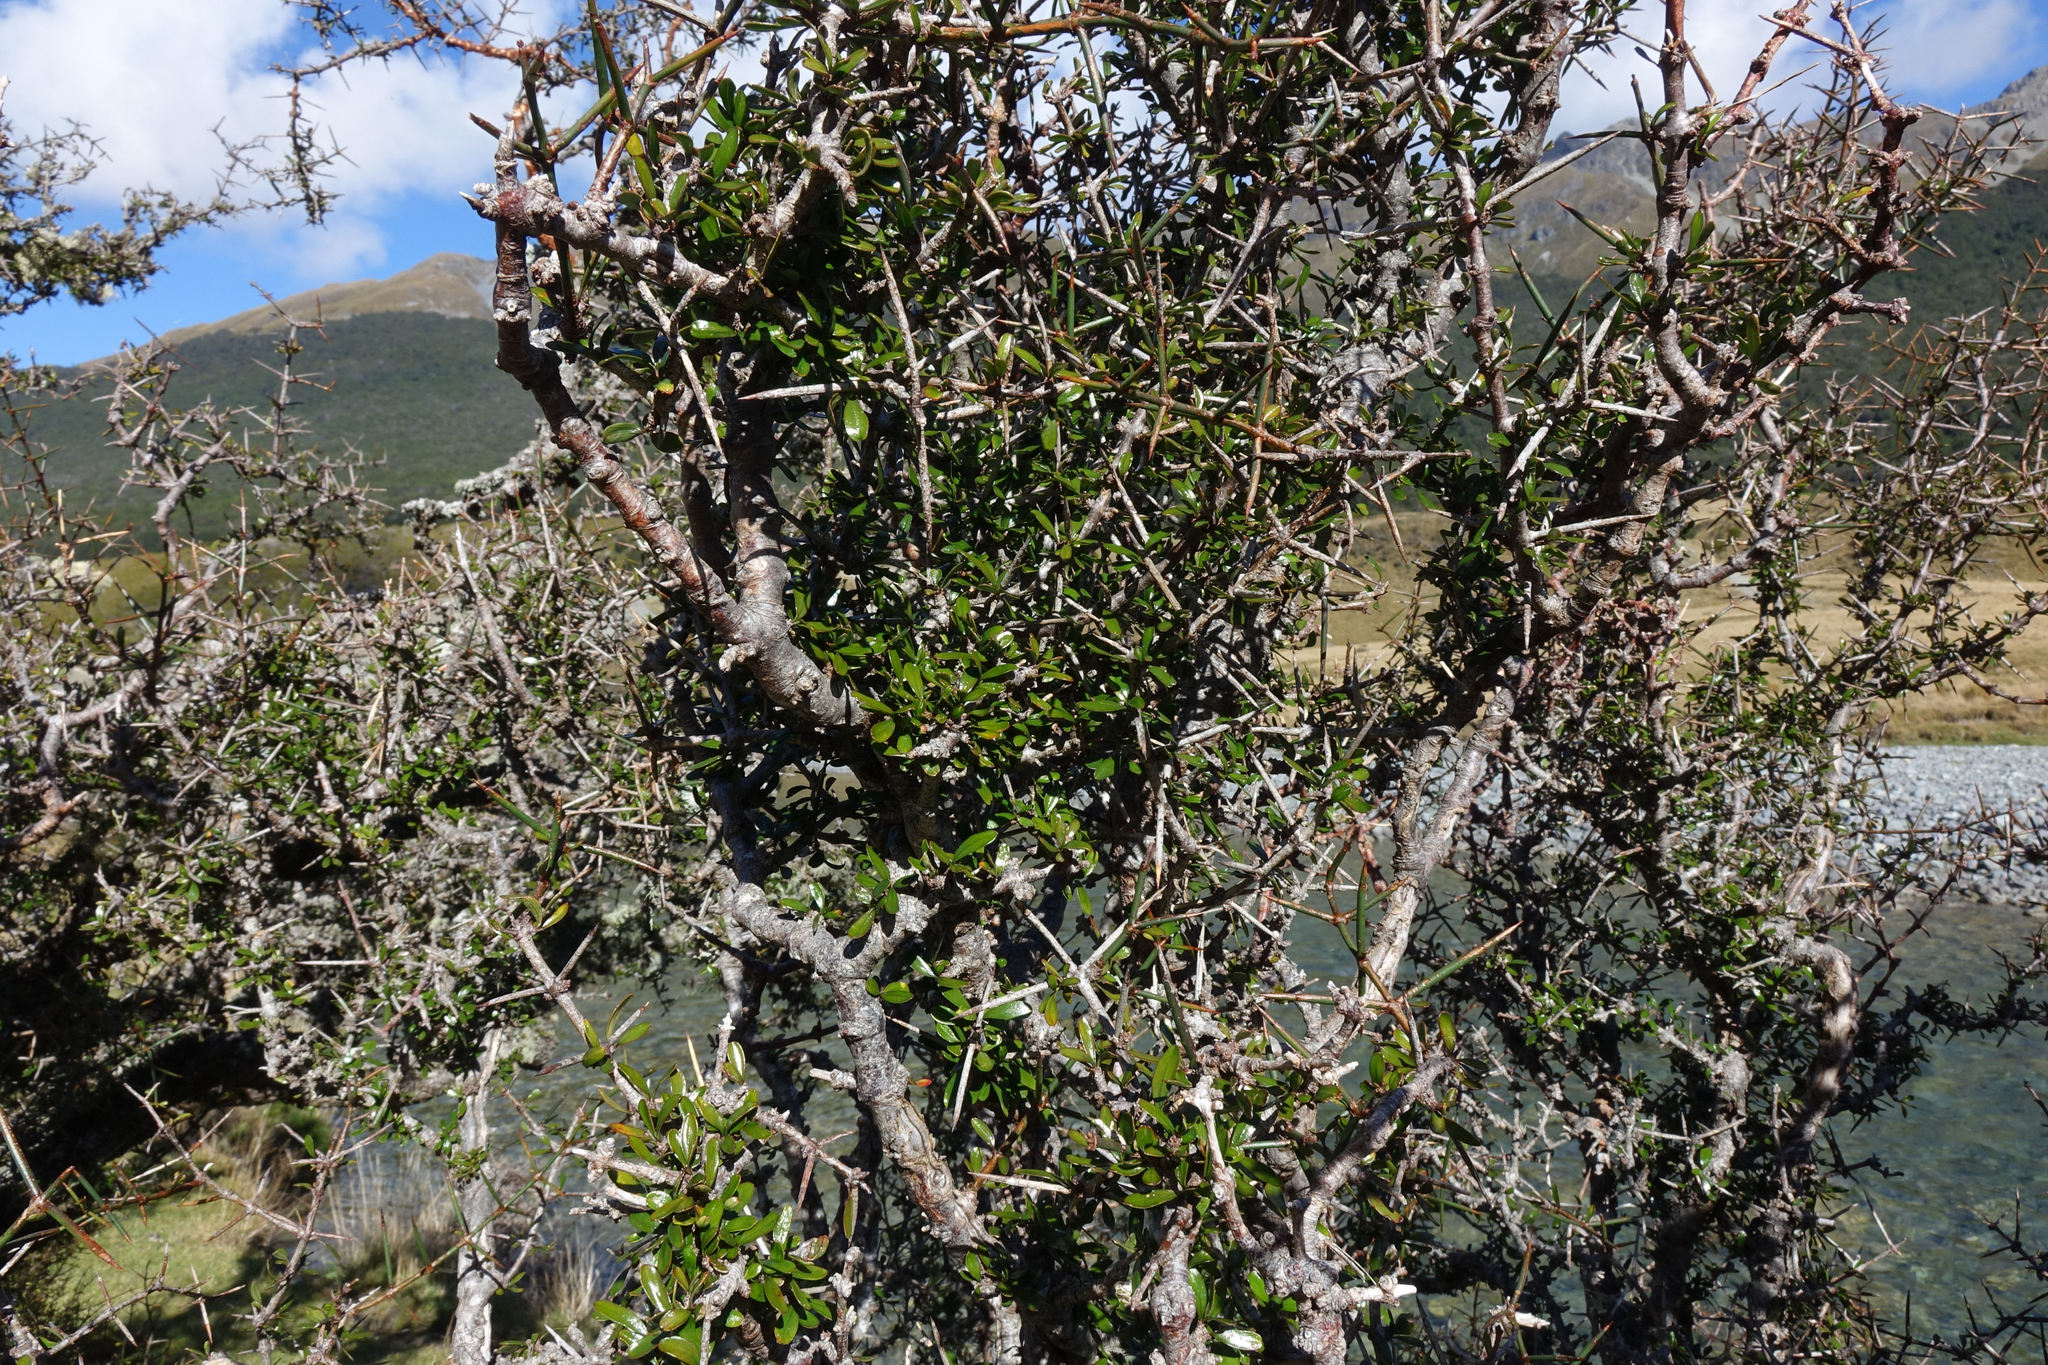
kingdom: Plantae
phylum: Tracheophyta
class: Magnoliopsida
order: Rosales
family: Rhamnaceae
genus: Discaria
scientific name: Discaria toumatou
